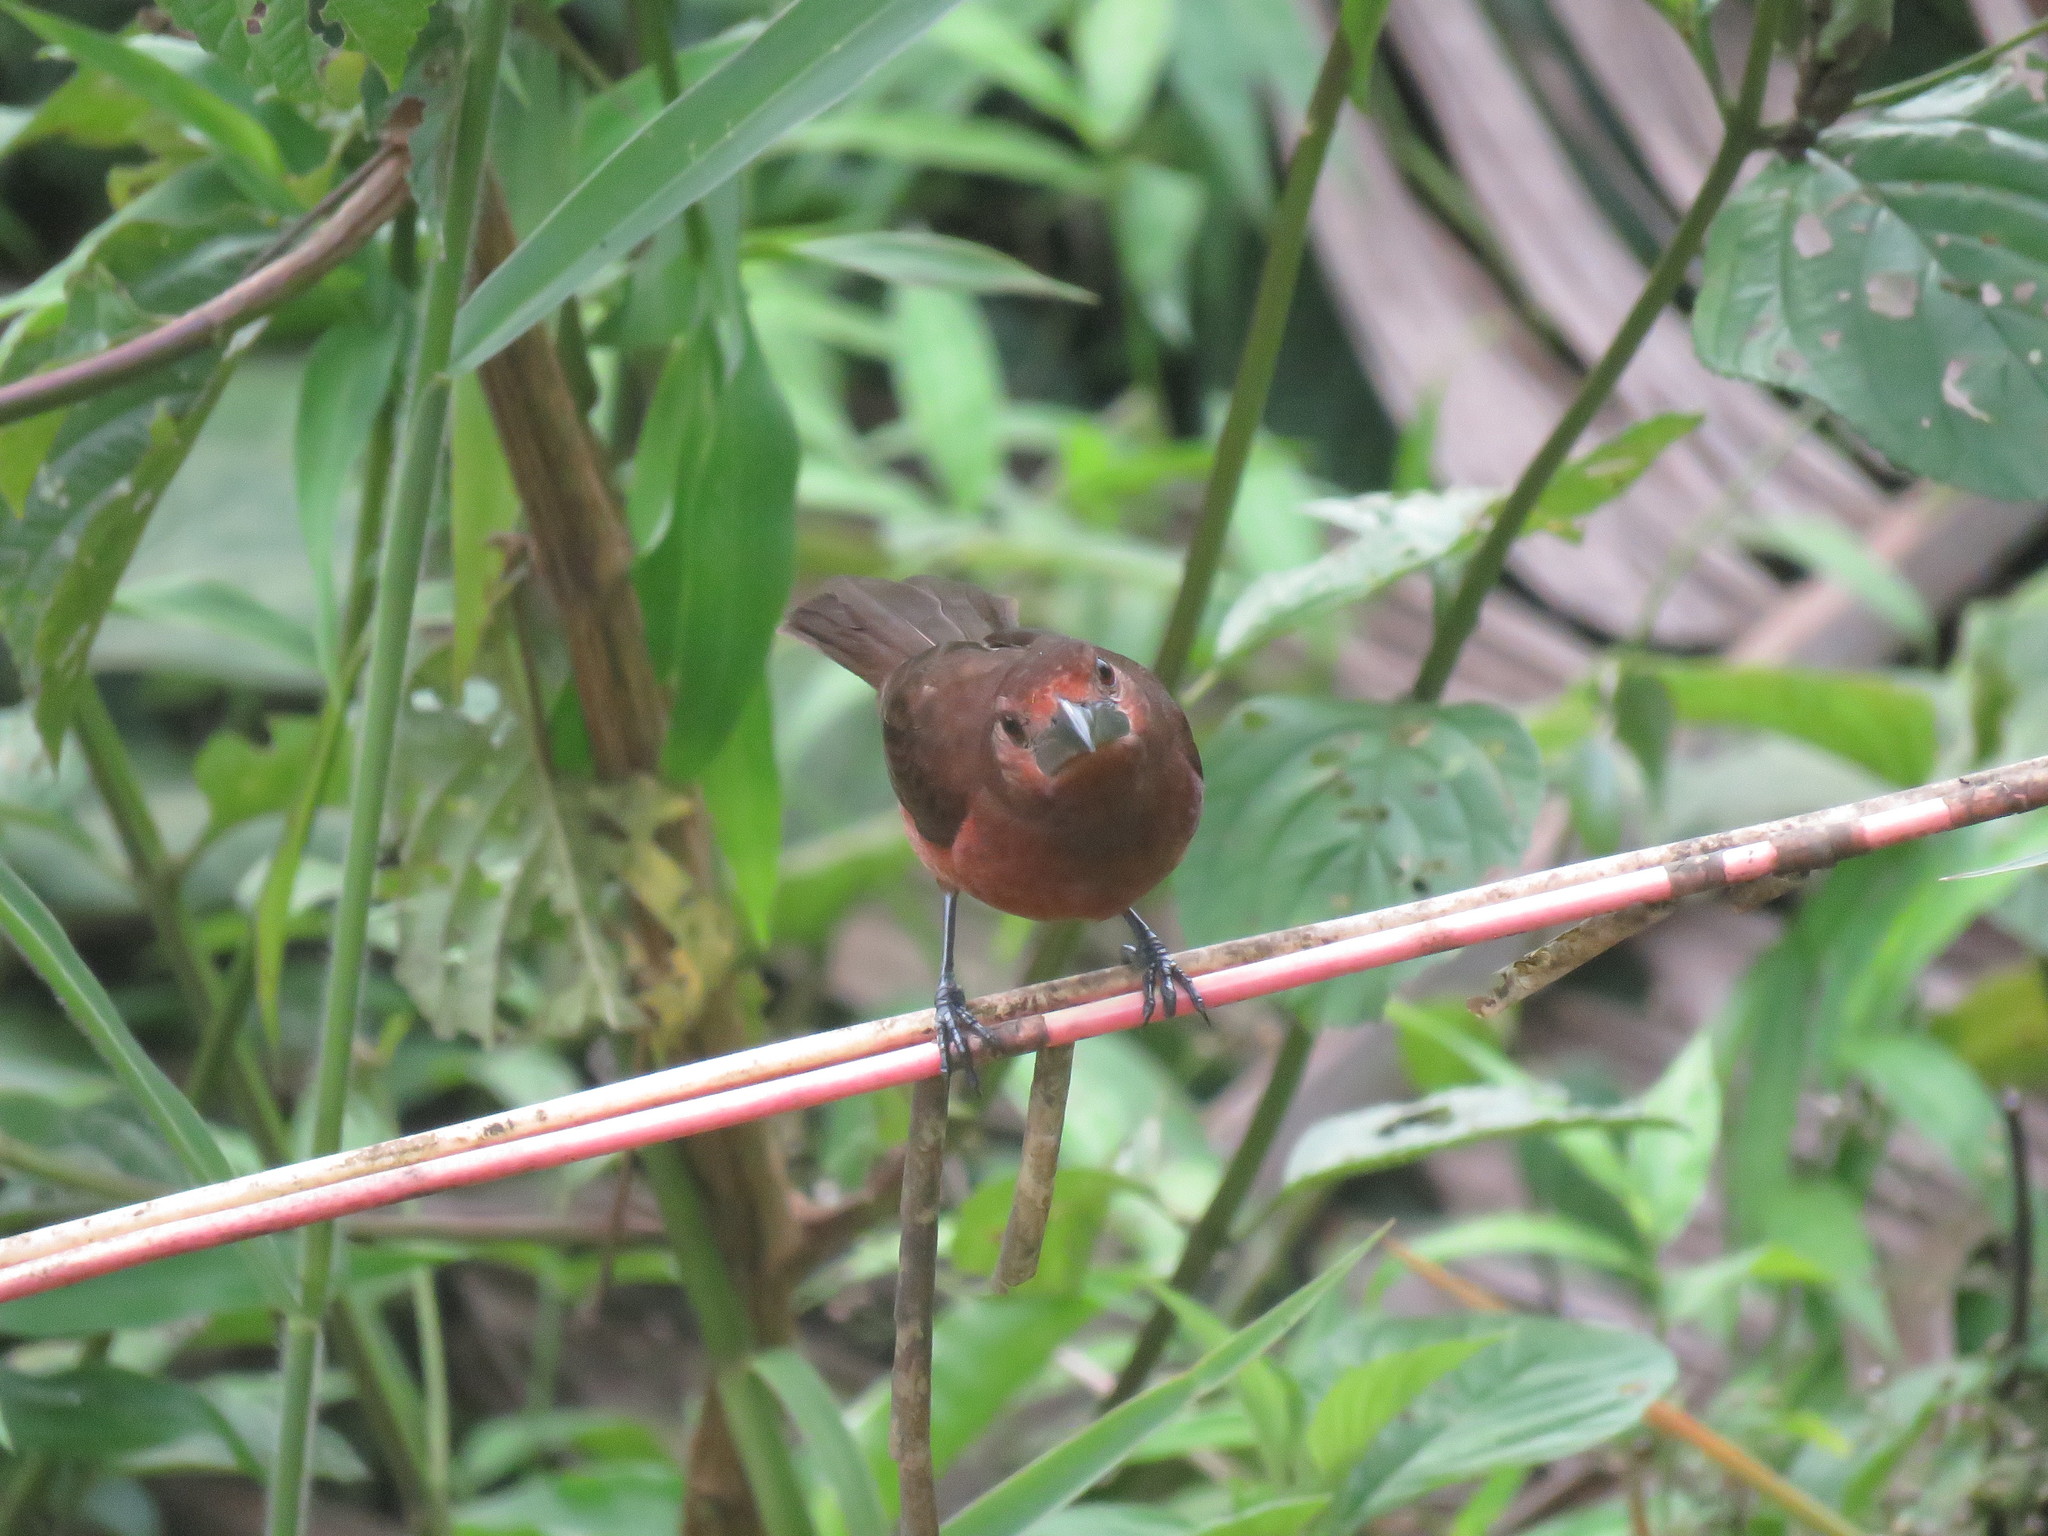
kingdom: Animalia
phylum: Chordata
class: Aves
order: Passeriformes
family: Thraupidae
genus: Ramphocelus
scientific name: Ramphocelus carbo
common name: Silver-beaked tanager
